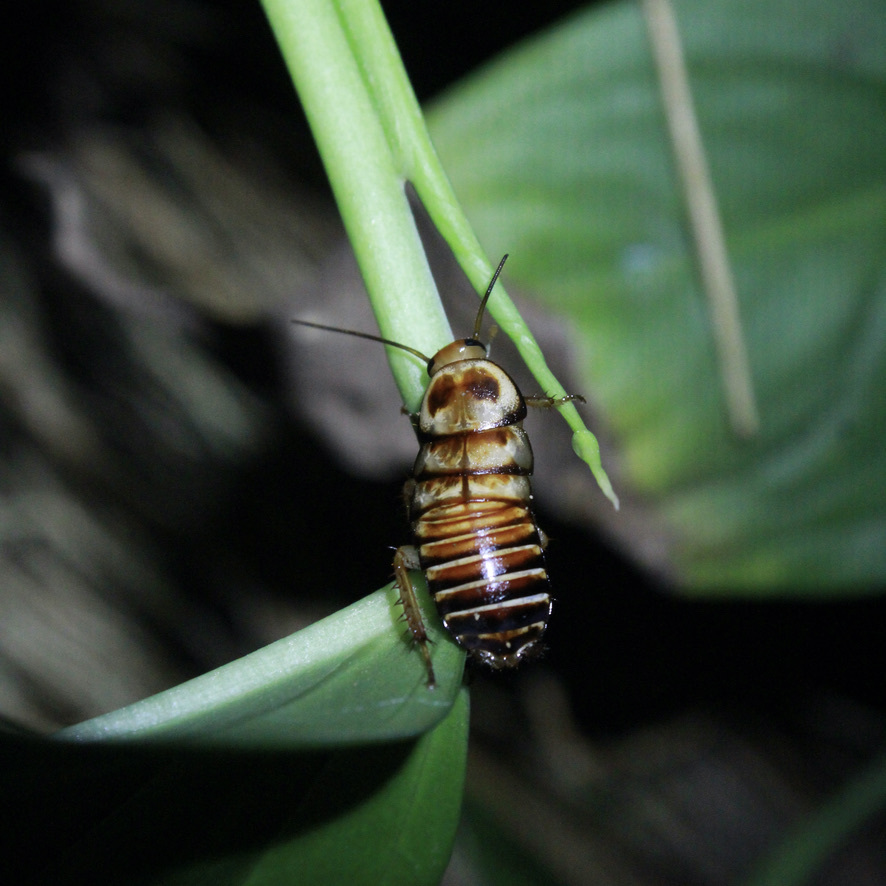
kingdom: Animalia
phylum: Arthropoda
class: Insecta
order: Blattodea
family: Blattidae
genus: Eurycotis
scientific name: Eurycotis decipiens
